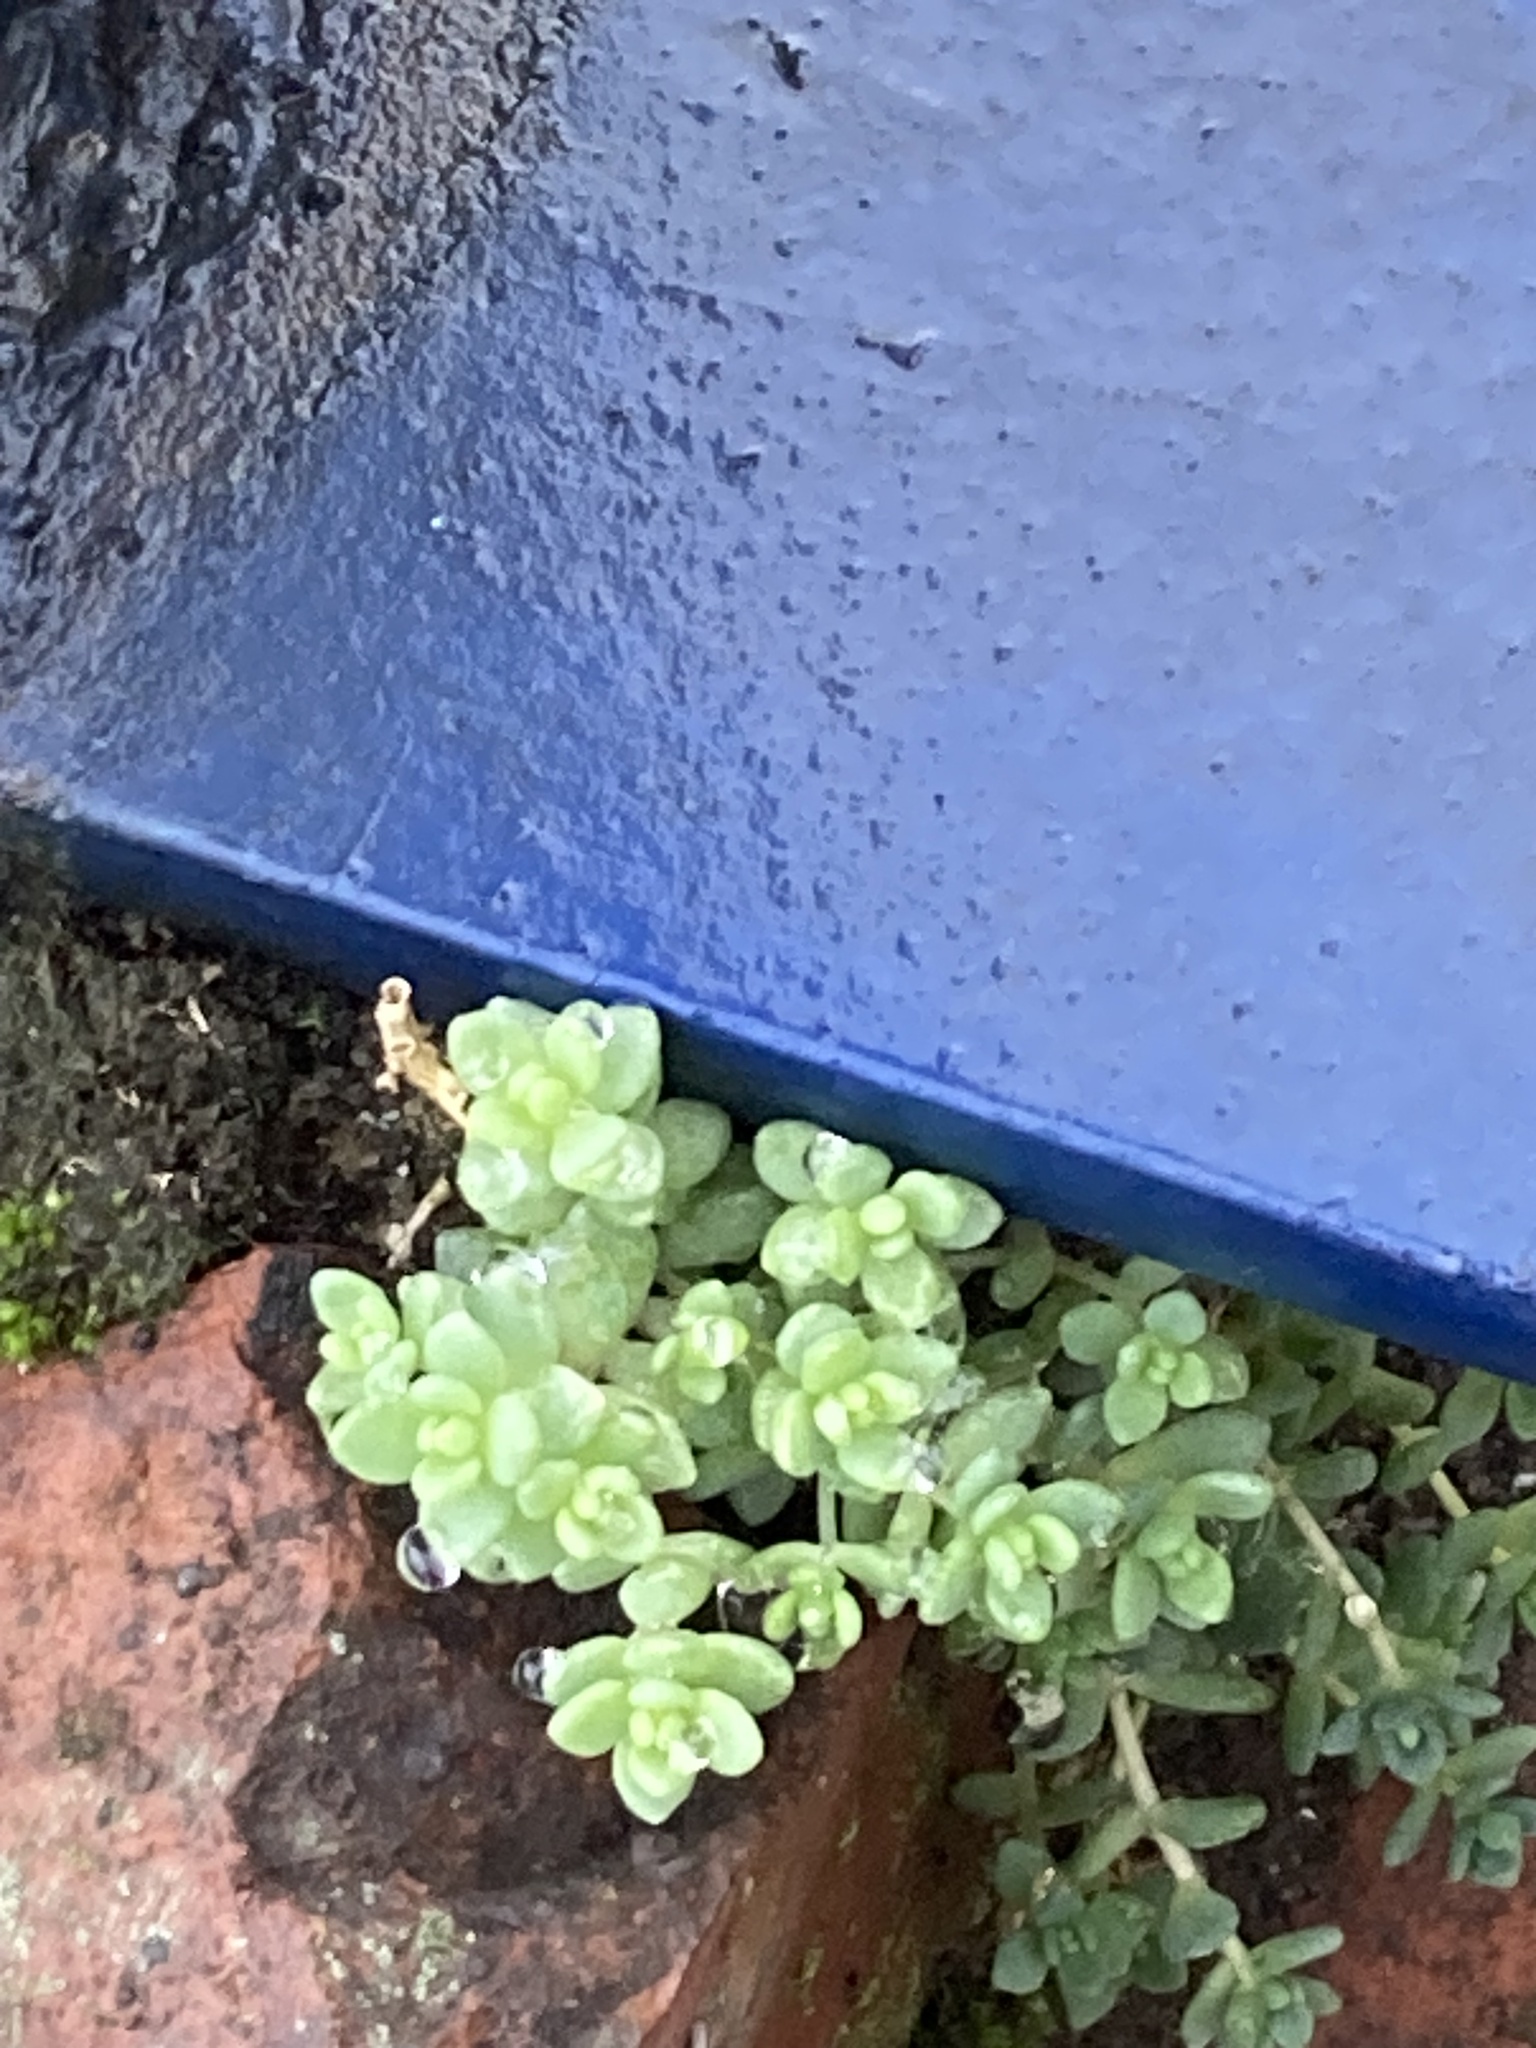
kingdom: Plantae
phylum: Tracheophyta
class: Magnoliopsida
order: Saxifragales
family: Crassulaceae
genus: Sedum
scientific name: Sedum dasyphyllum
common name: Thick-leaf stonecrop
